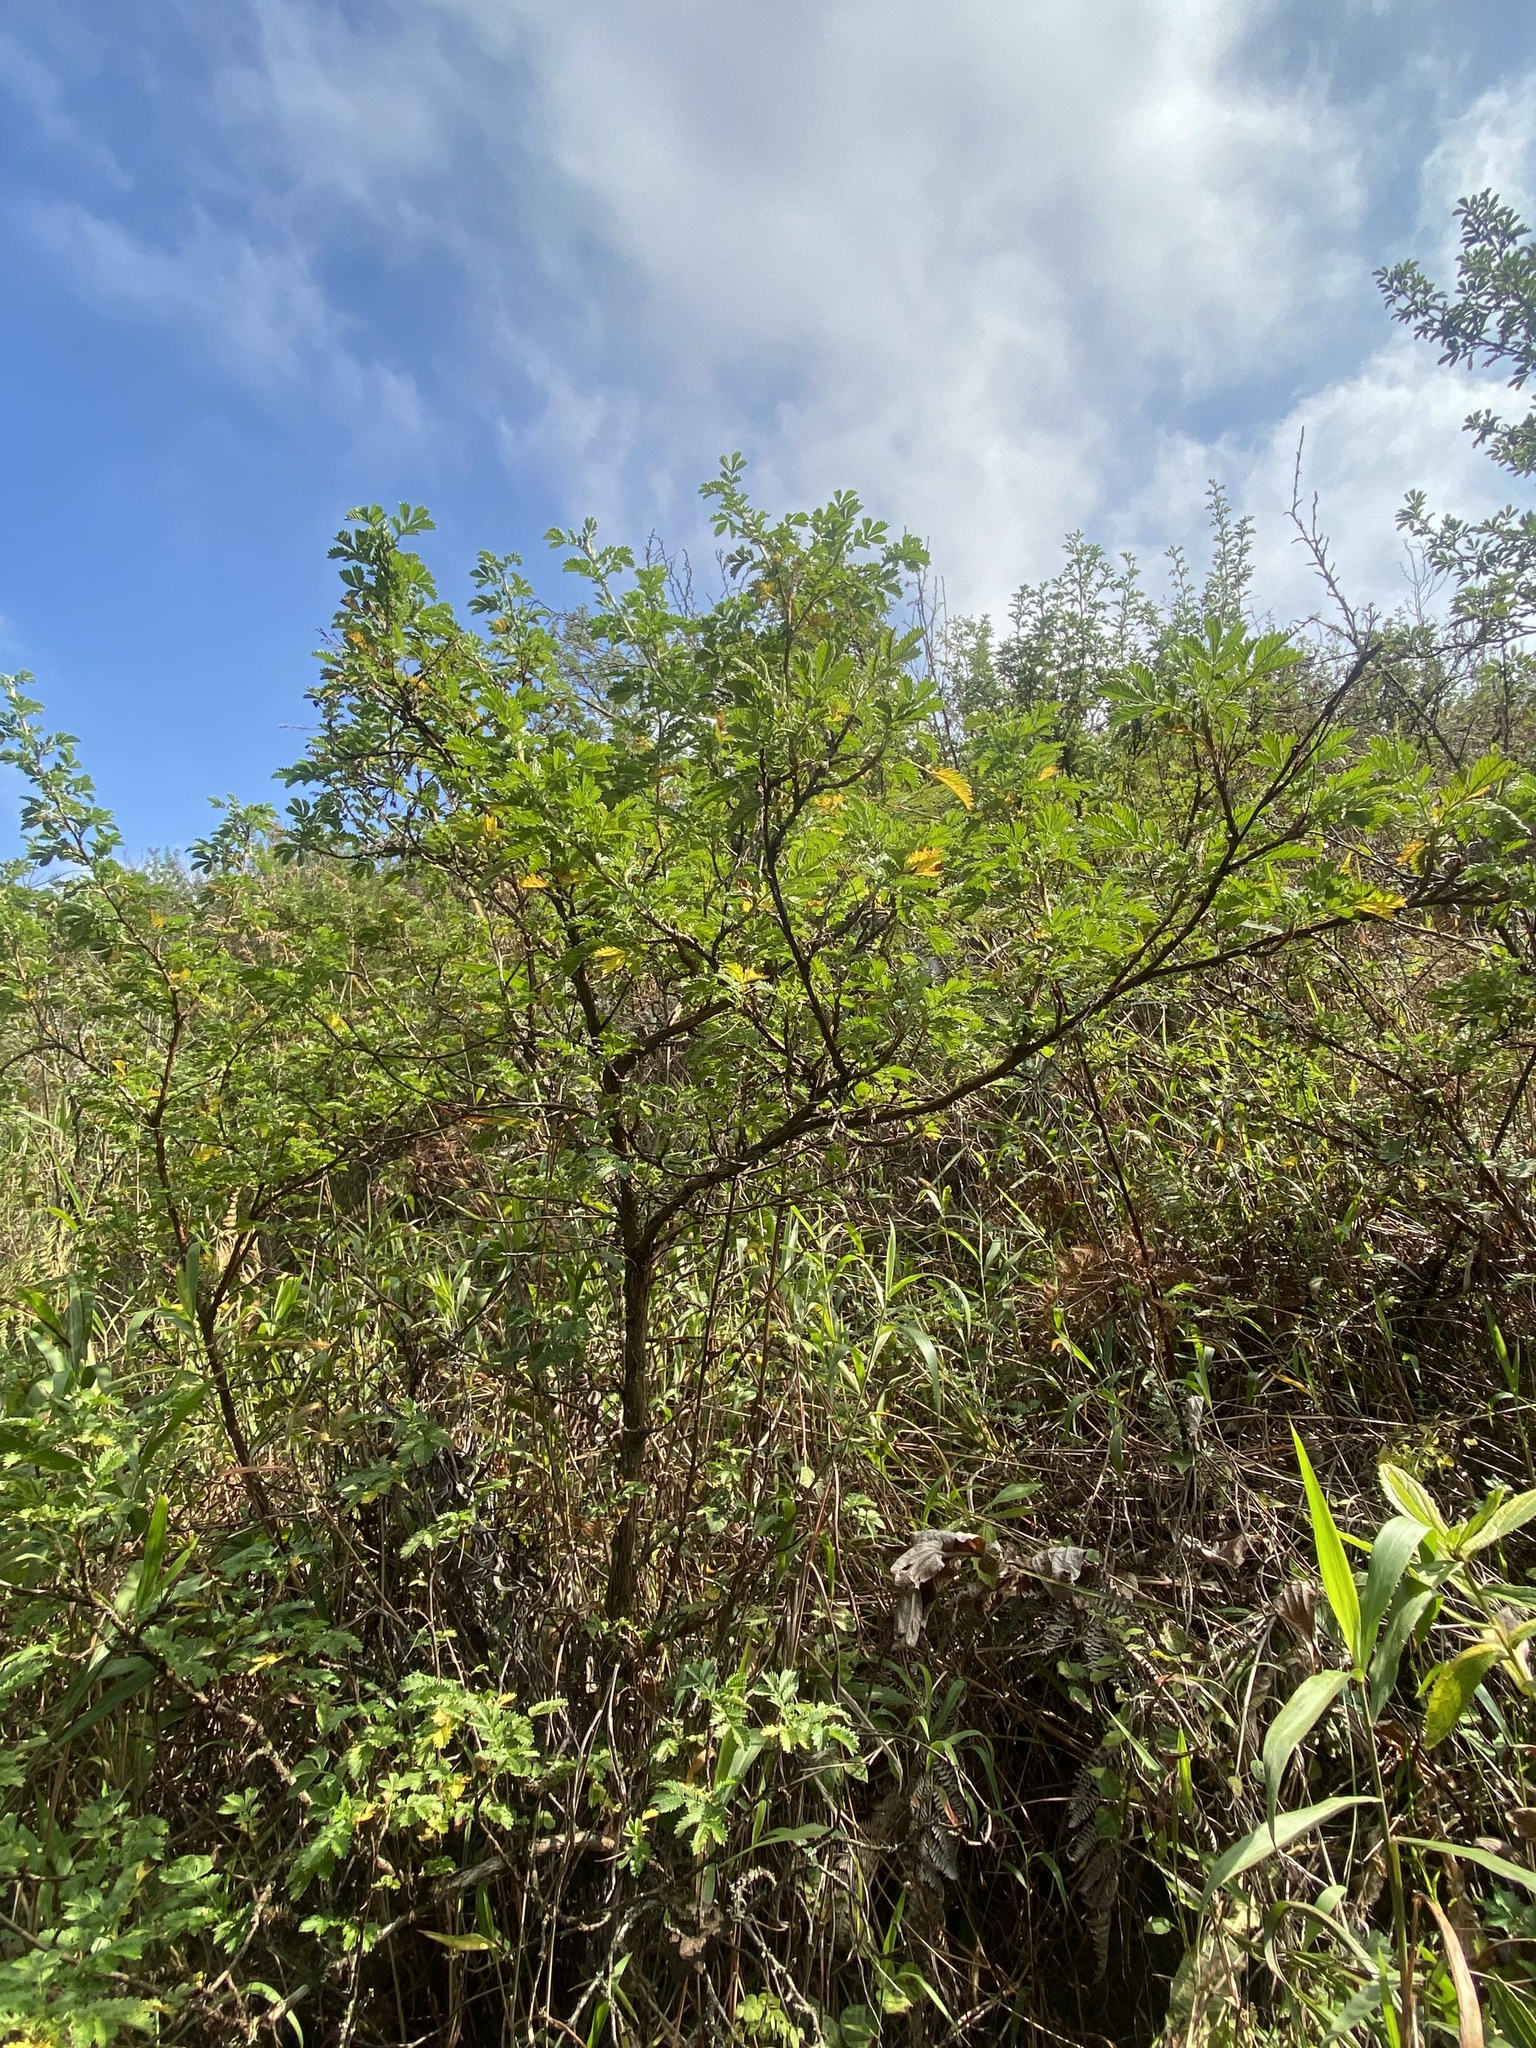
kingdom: Plantae
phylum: Tracheophyta
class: Magnoliopsida
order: Rosales
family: Rosaceae
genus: Leucosidea
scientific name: Leucosidea sericea
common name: Oldwood
